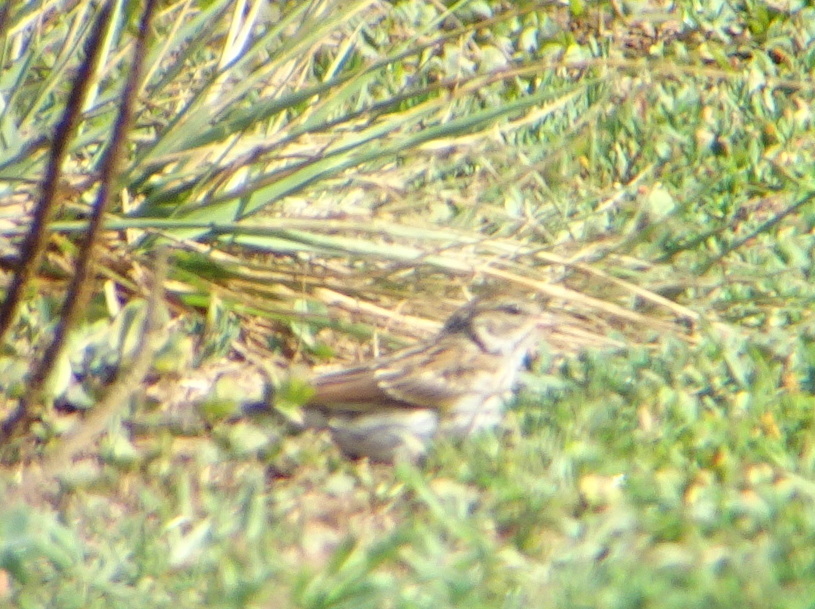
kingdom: Animalia
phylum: Chordata
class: Aves
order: Passeriformes
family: Passerellidae
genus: Spizella
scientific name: Spizella passerina
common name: Chipping sparrow
